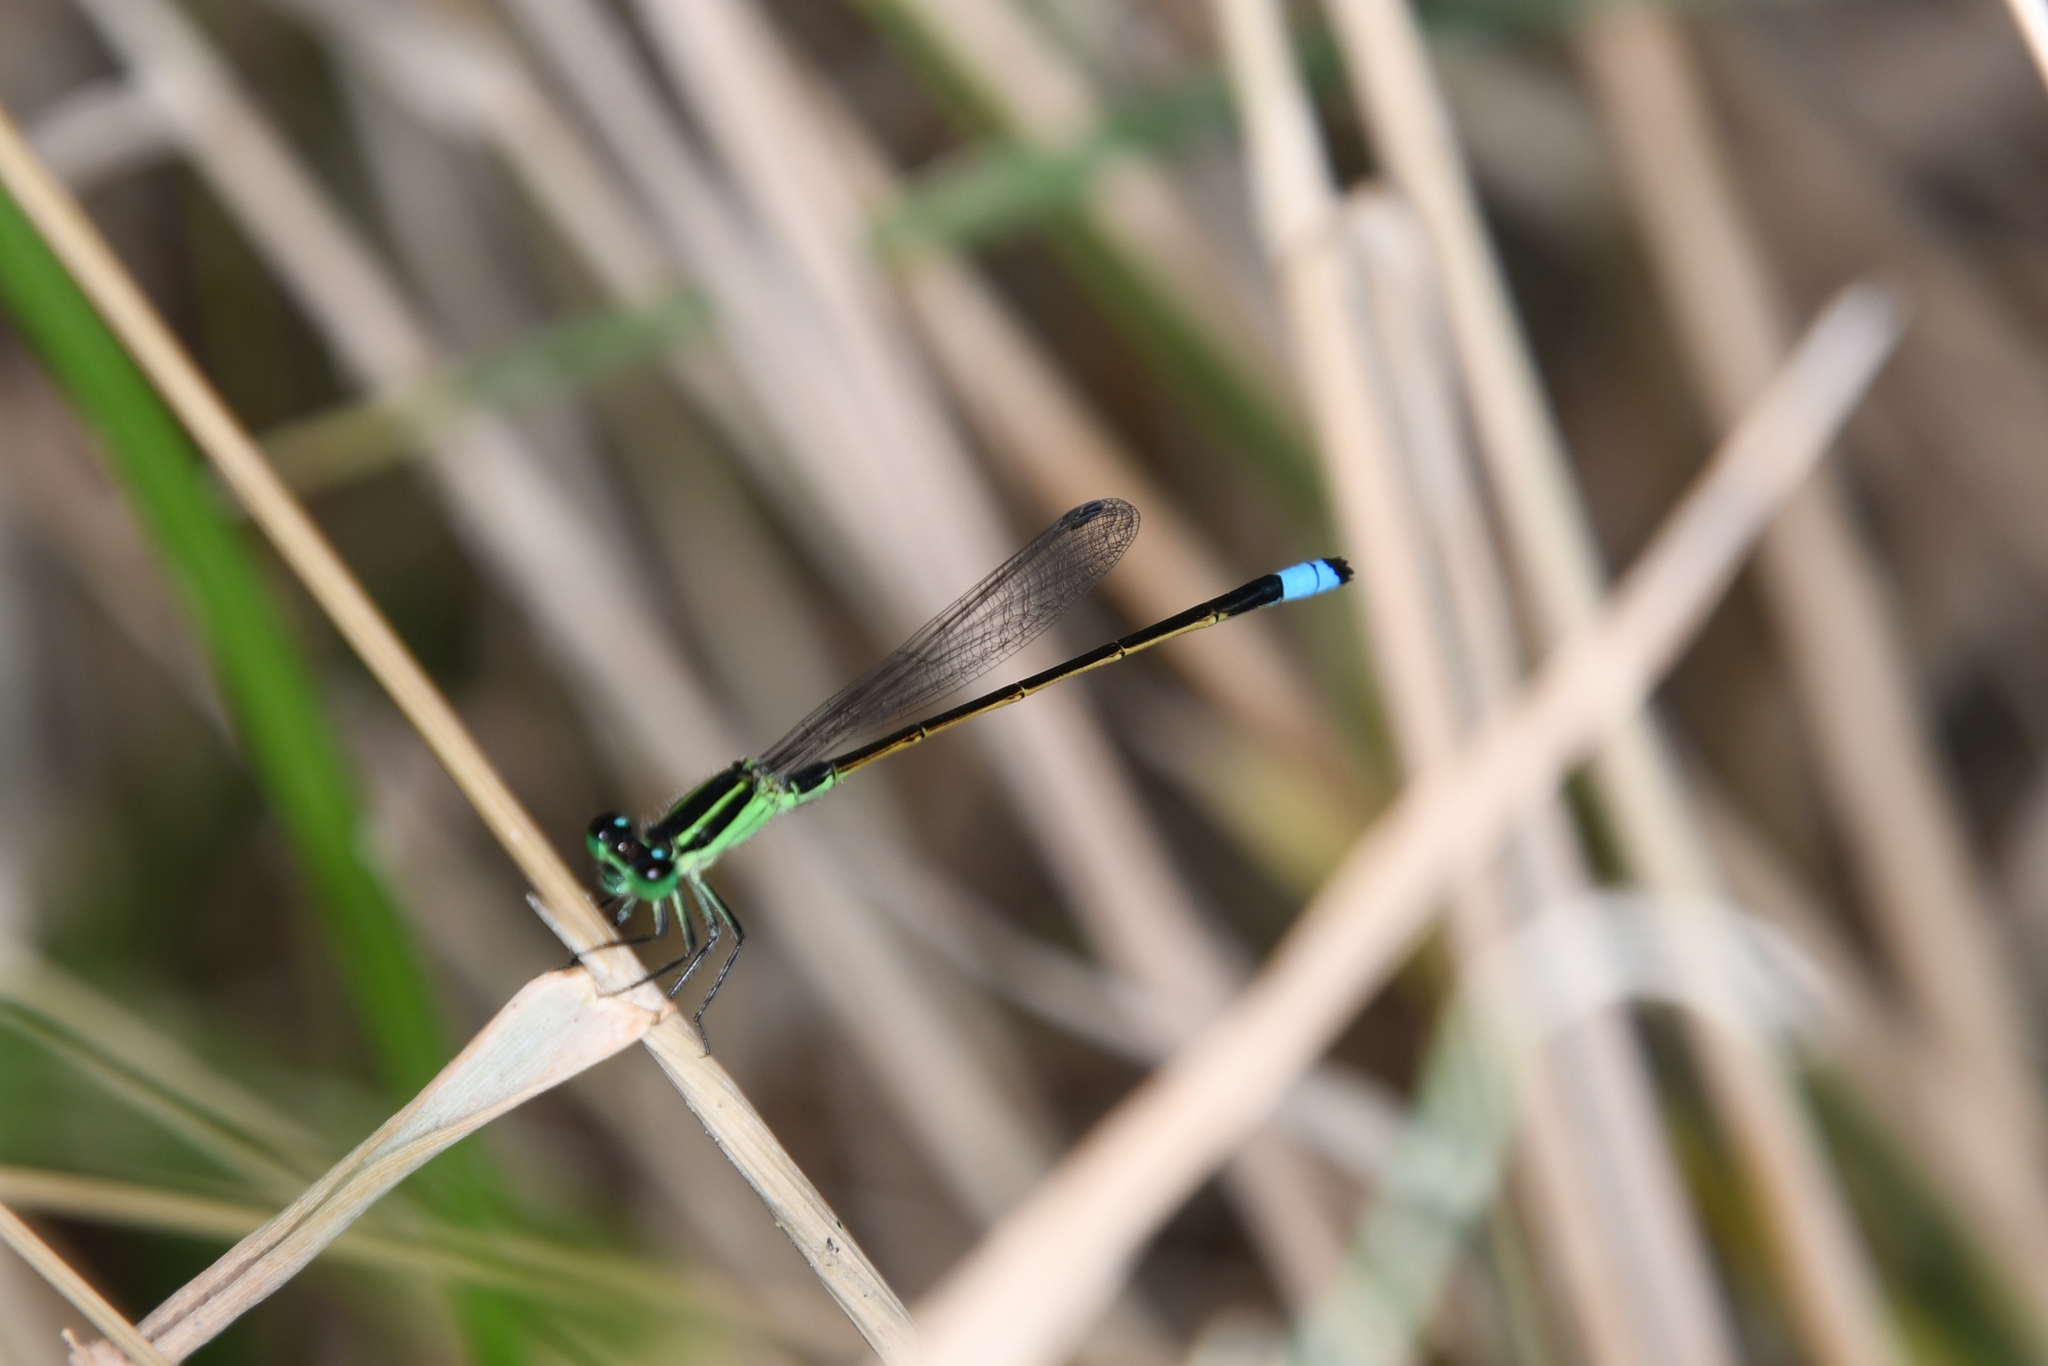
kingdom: Animalia
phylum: Arthropoda
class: Insecta
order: Odonata
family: Coenagrionidae
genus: Ischnura
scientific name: Ischnura ramburii
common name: Rambur's forktail
